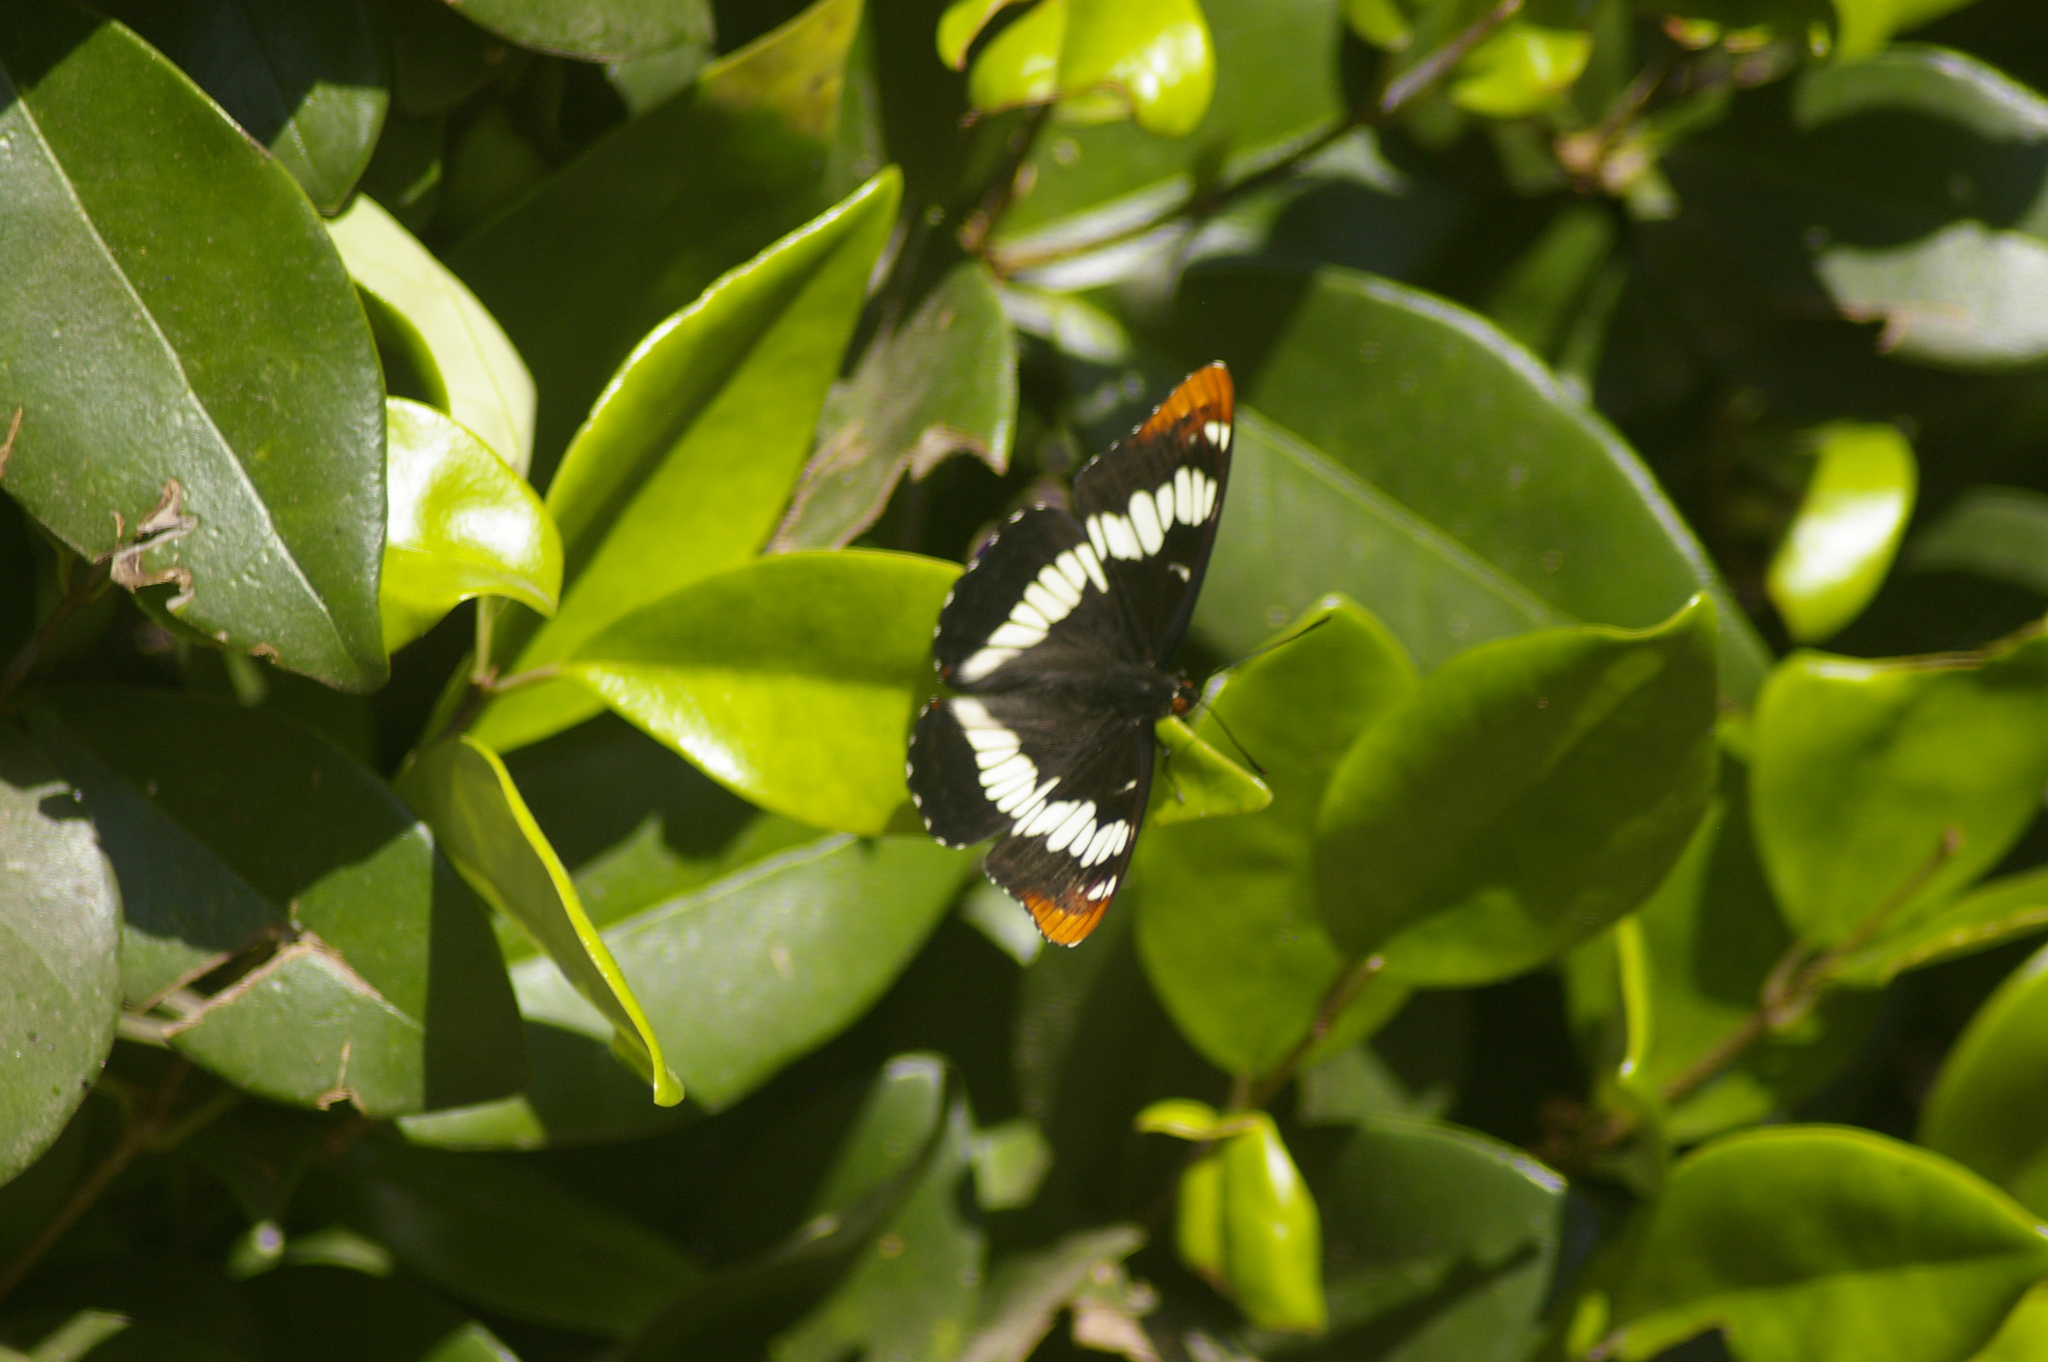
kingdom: Animalia
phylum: Arthropoda
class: Insecta
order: Lepidoptera
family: Nymphalidae
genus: Limenitis
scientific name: Limenitis lorquini
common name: Lorquin's admiral
